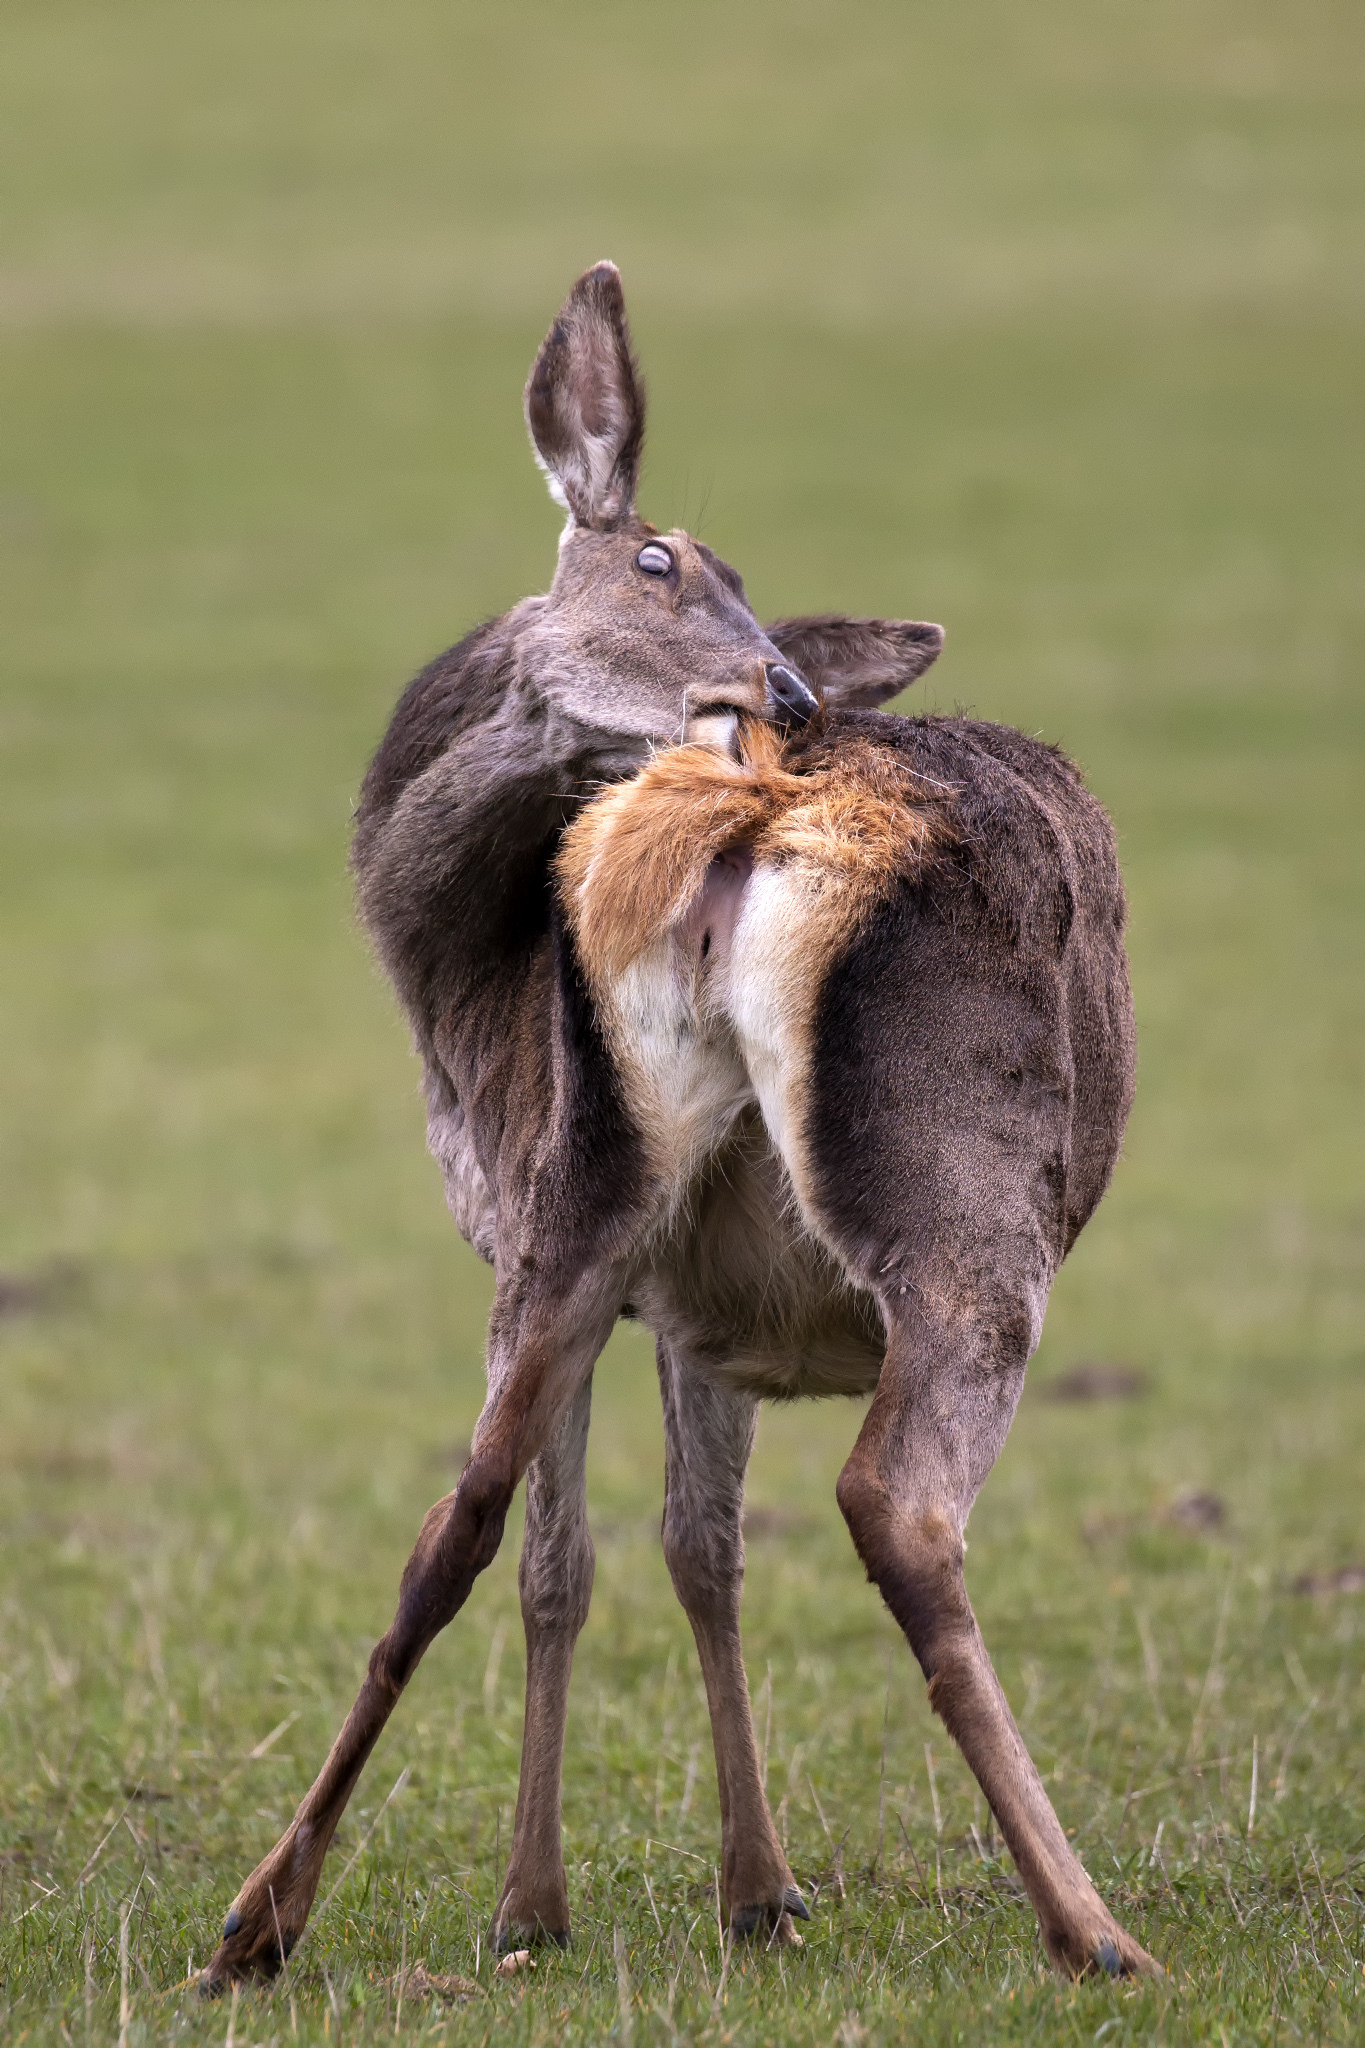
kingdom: Animalia
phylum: Chordata
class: Mammalia
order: Artiodactyla
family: Cervidae
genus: Cervus
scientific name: Cervus elaphus
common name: Red deer
